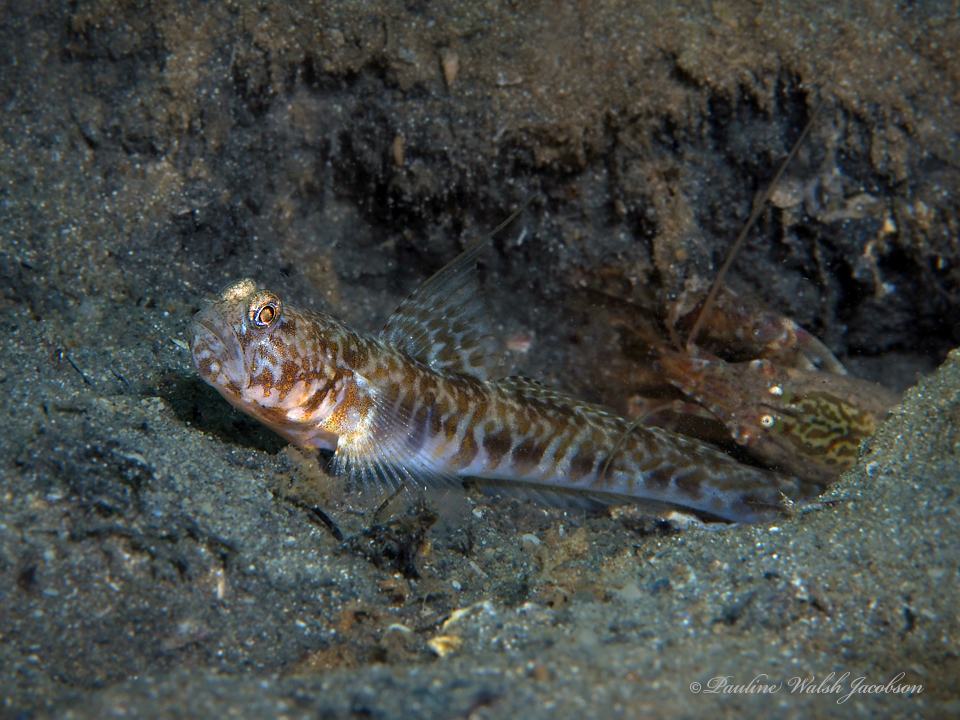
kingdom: Animalia
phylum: Arthropoda
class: Malacostraca
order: Decapoda
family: Alpheidae
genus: Alpheus
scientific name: Alpheus floridanus
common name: Sand snapping shrimp
